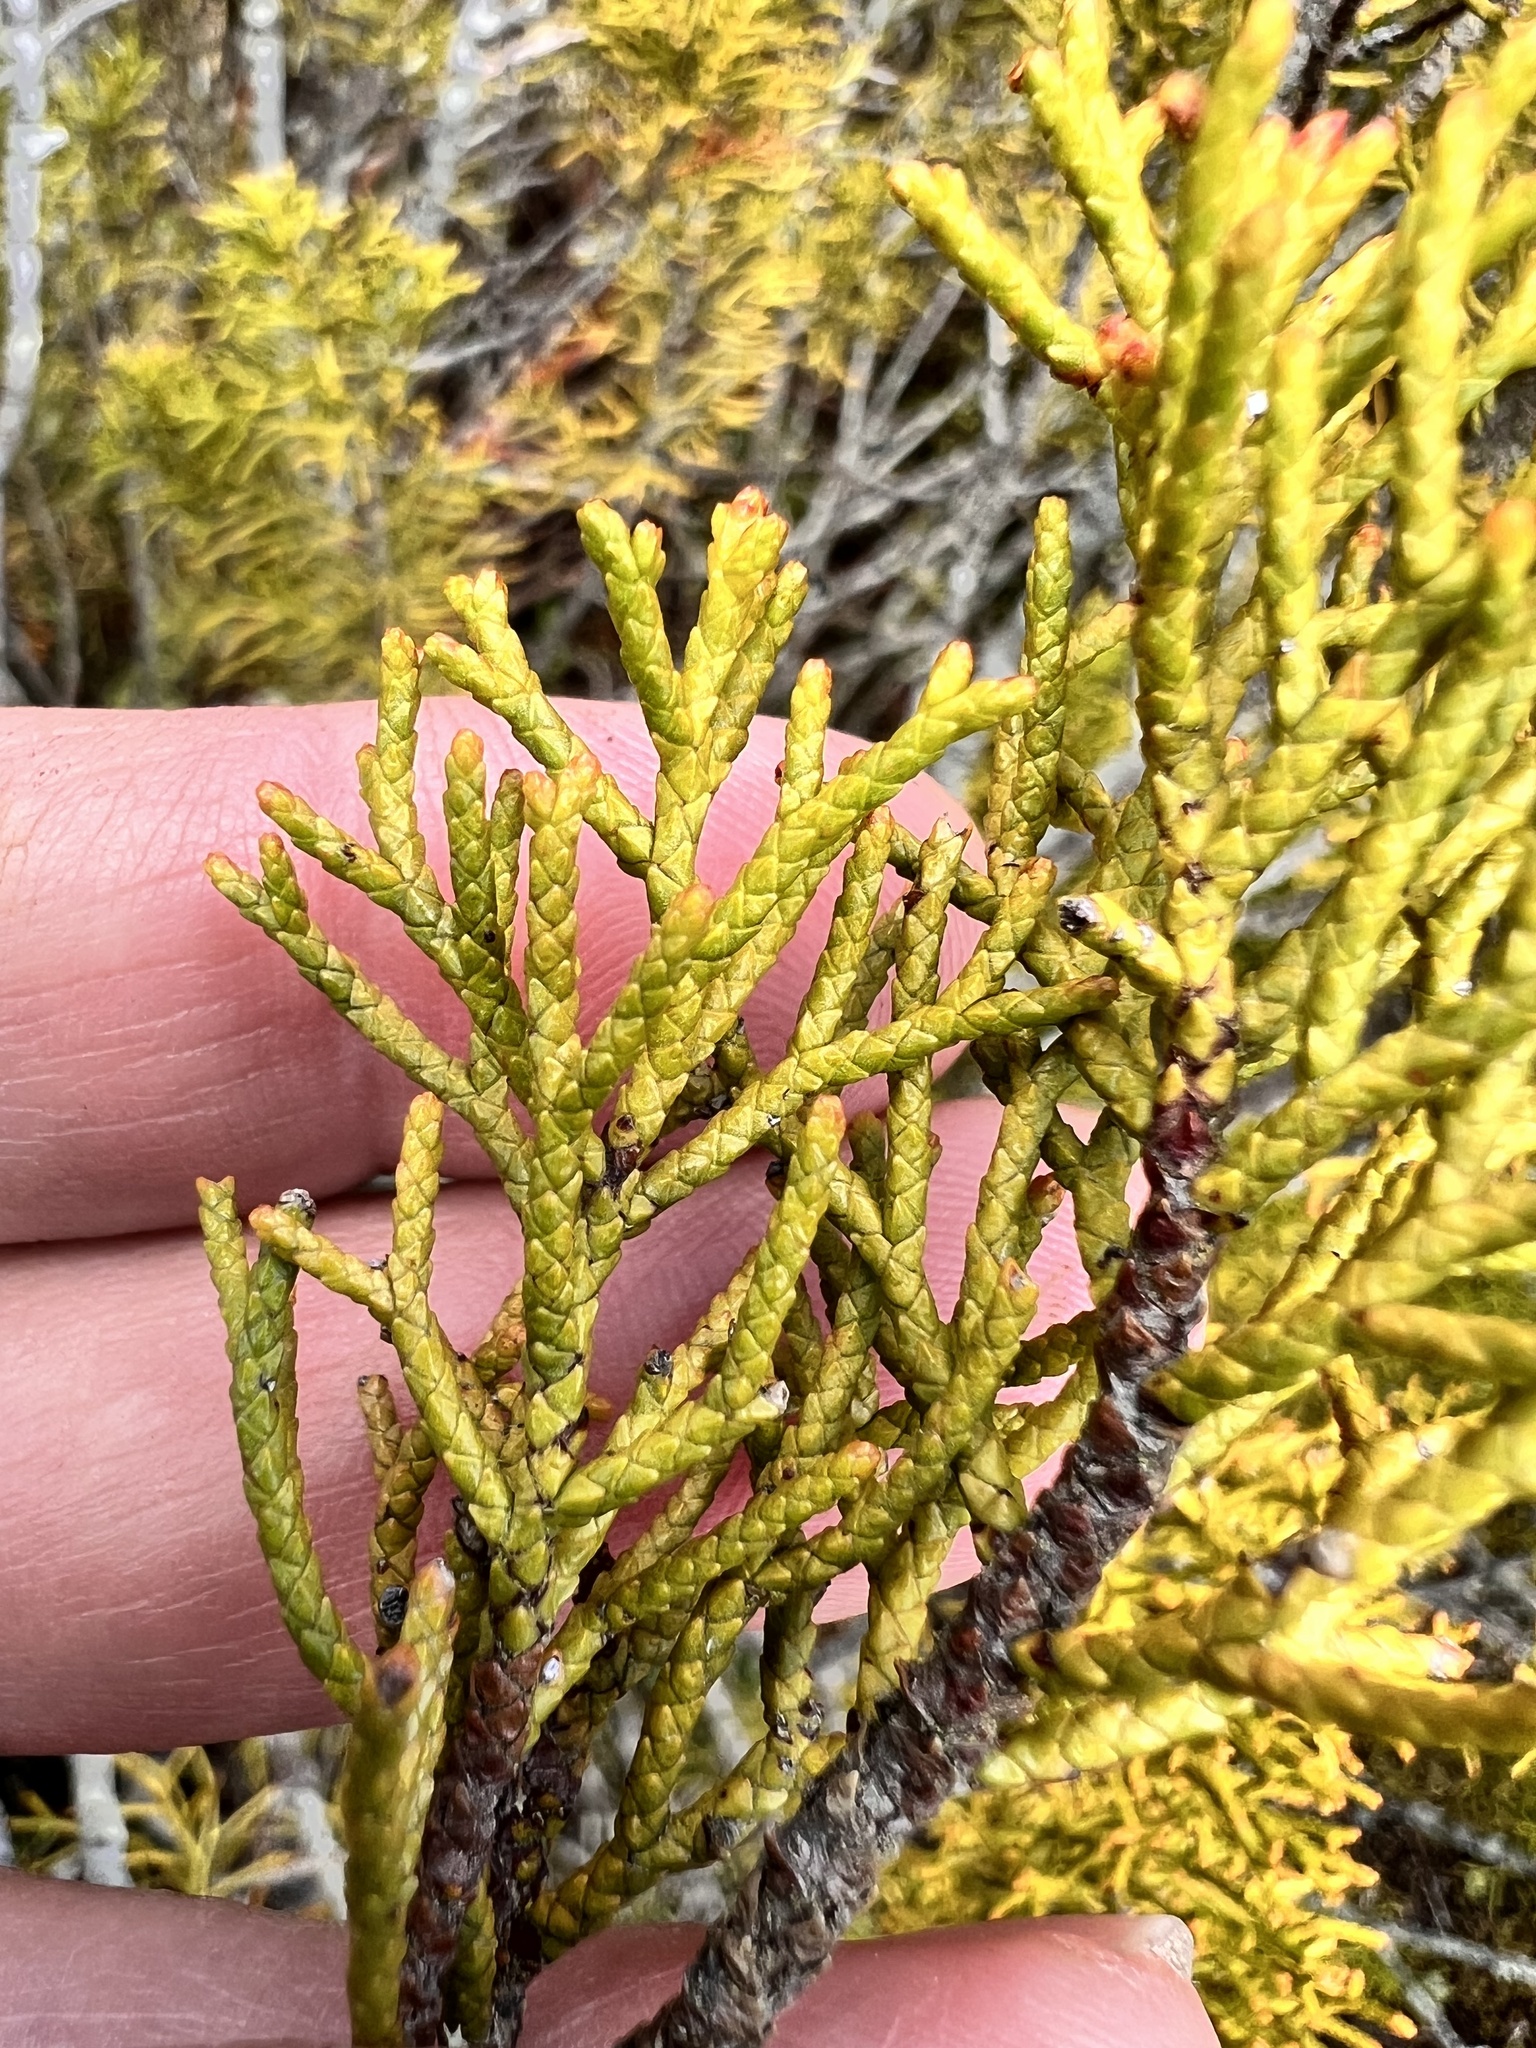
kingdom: Plantae
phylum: Tracheophyta
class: Pinopsida
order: Pinales
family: Podocarpaceae
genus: Halocarpus
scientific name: Halocarpus bidwillii
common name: Bog pine
